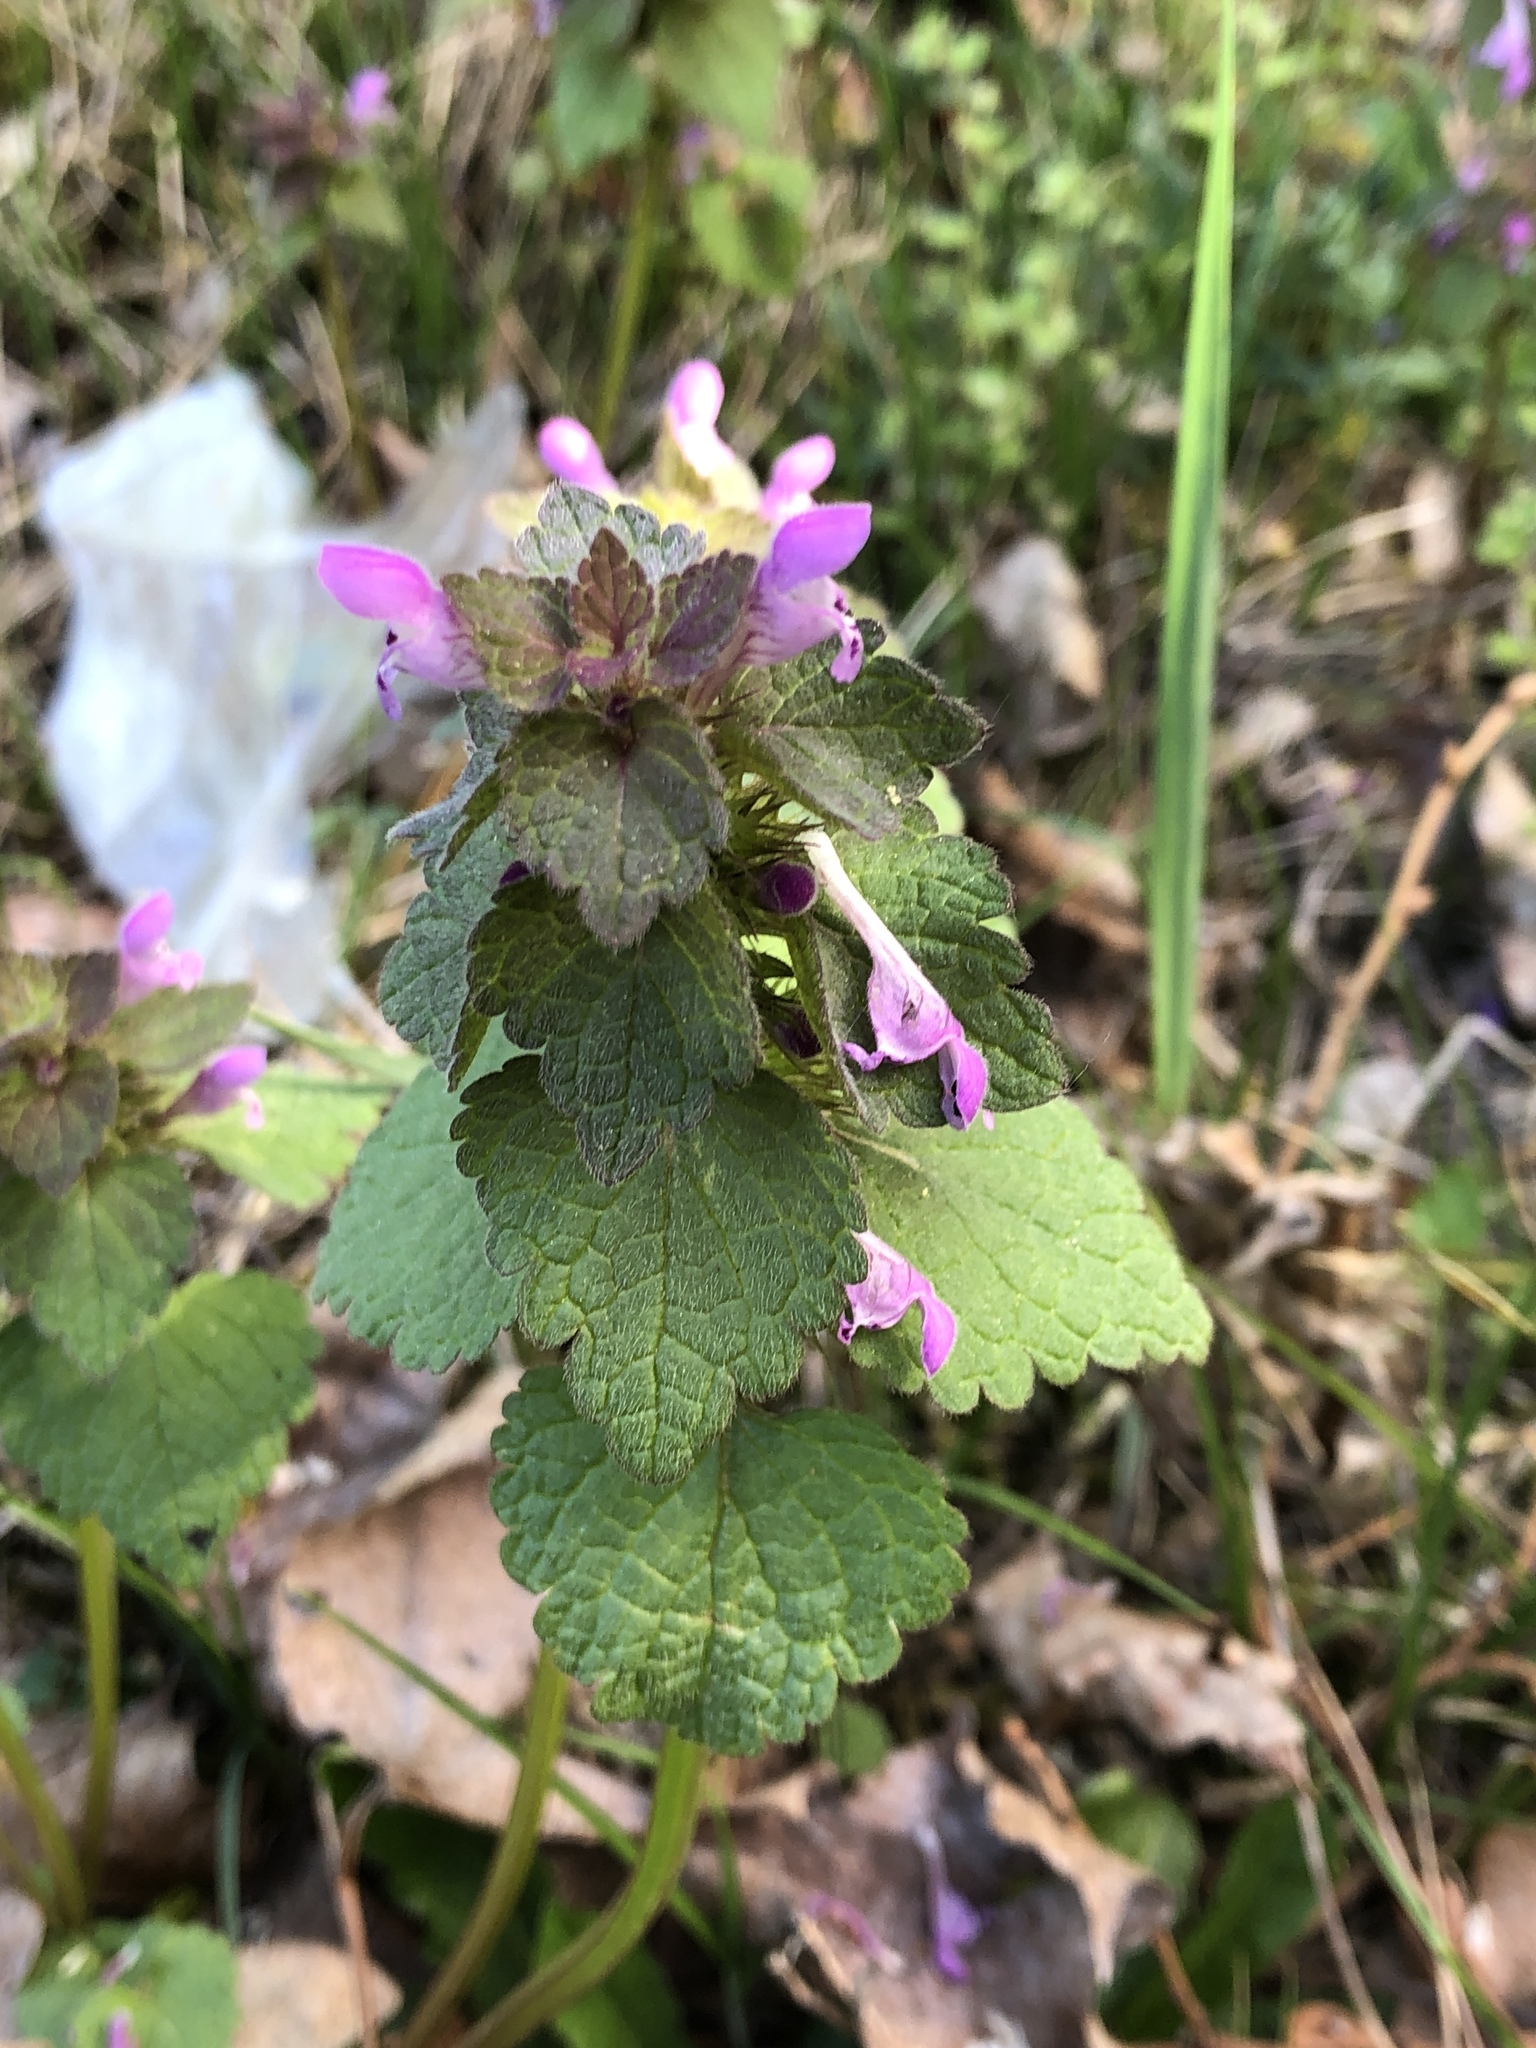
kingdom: Plantae
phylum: Tracheophyta
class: Magnoliopsida
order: Lamiales
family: Lamiaceae
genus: Lamium
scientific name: Lamium purpureum
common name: Red dead-nettle
